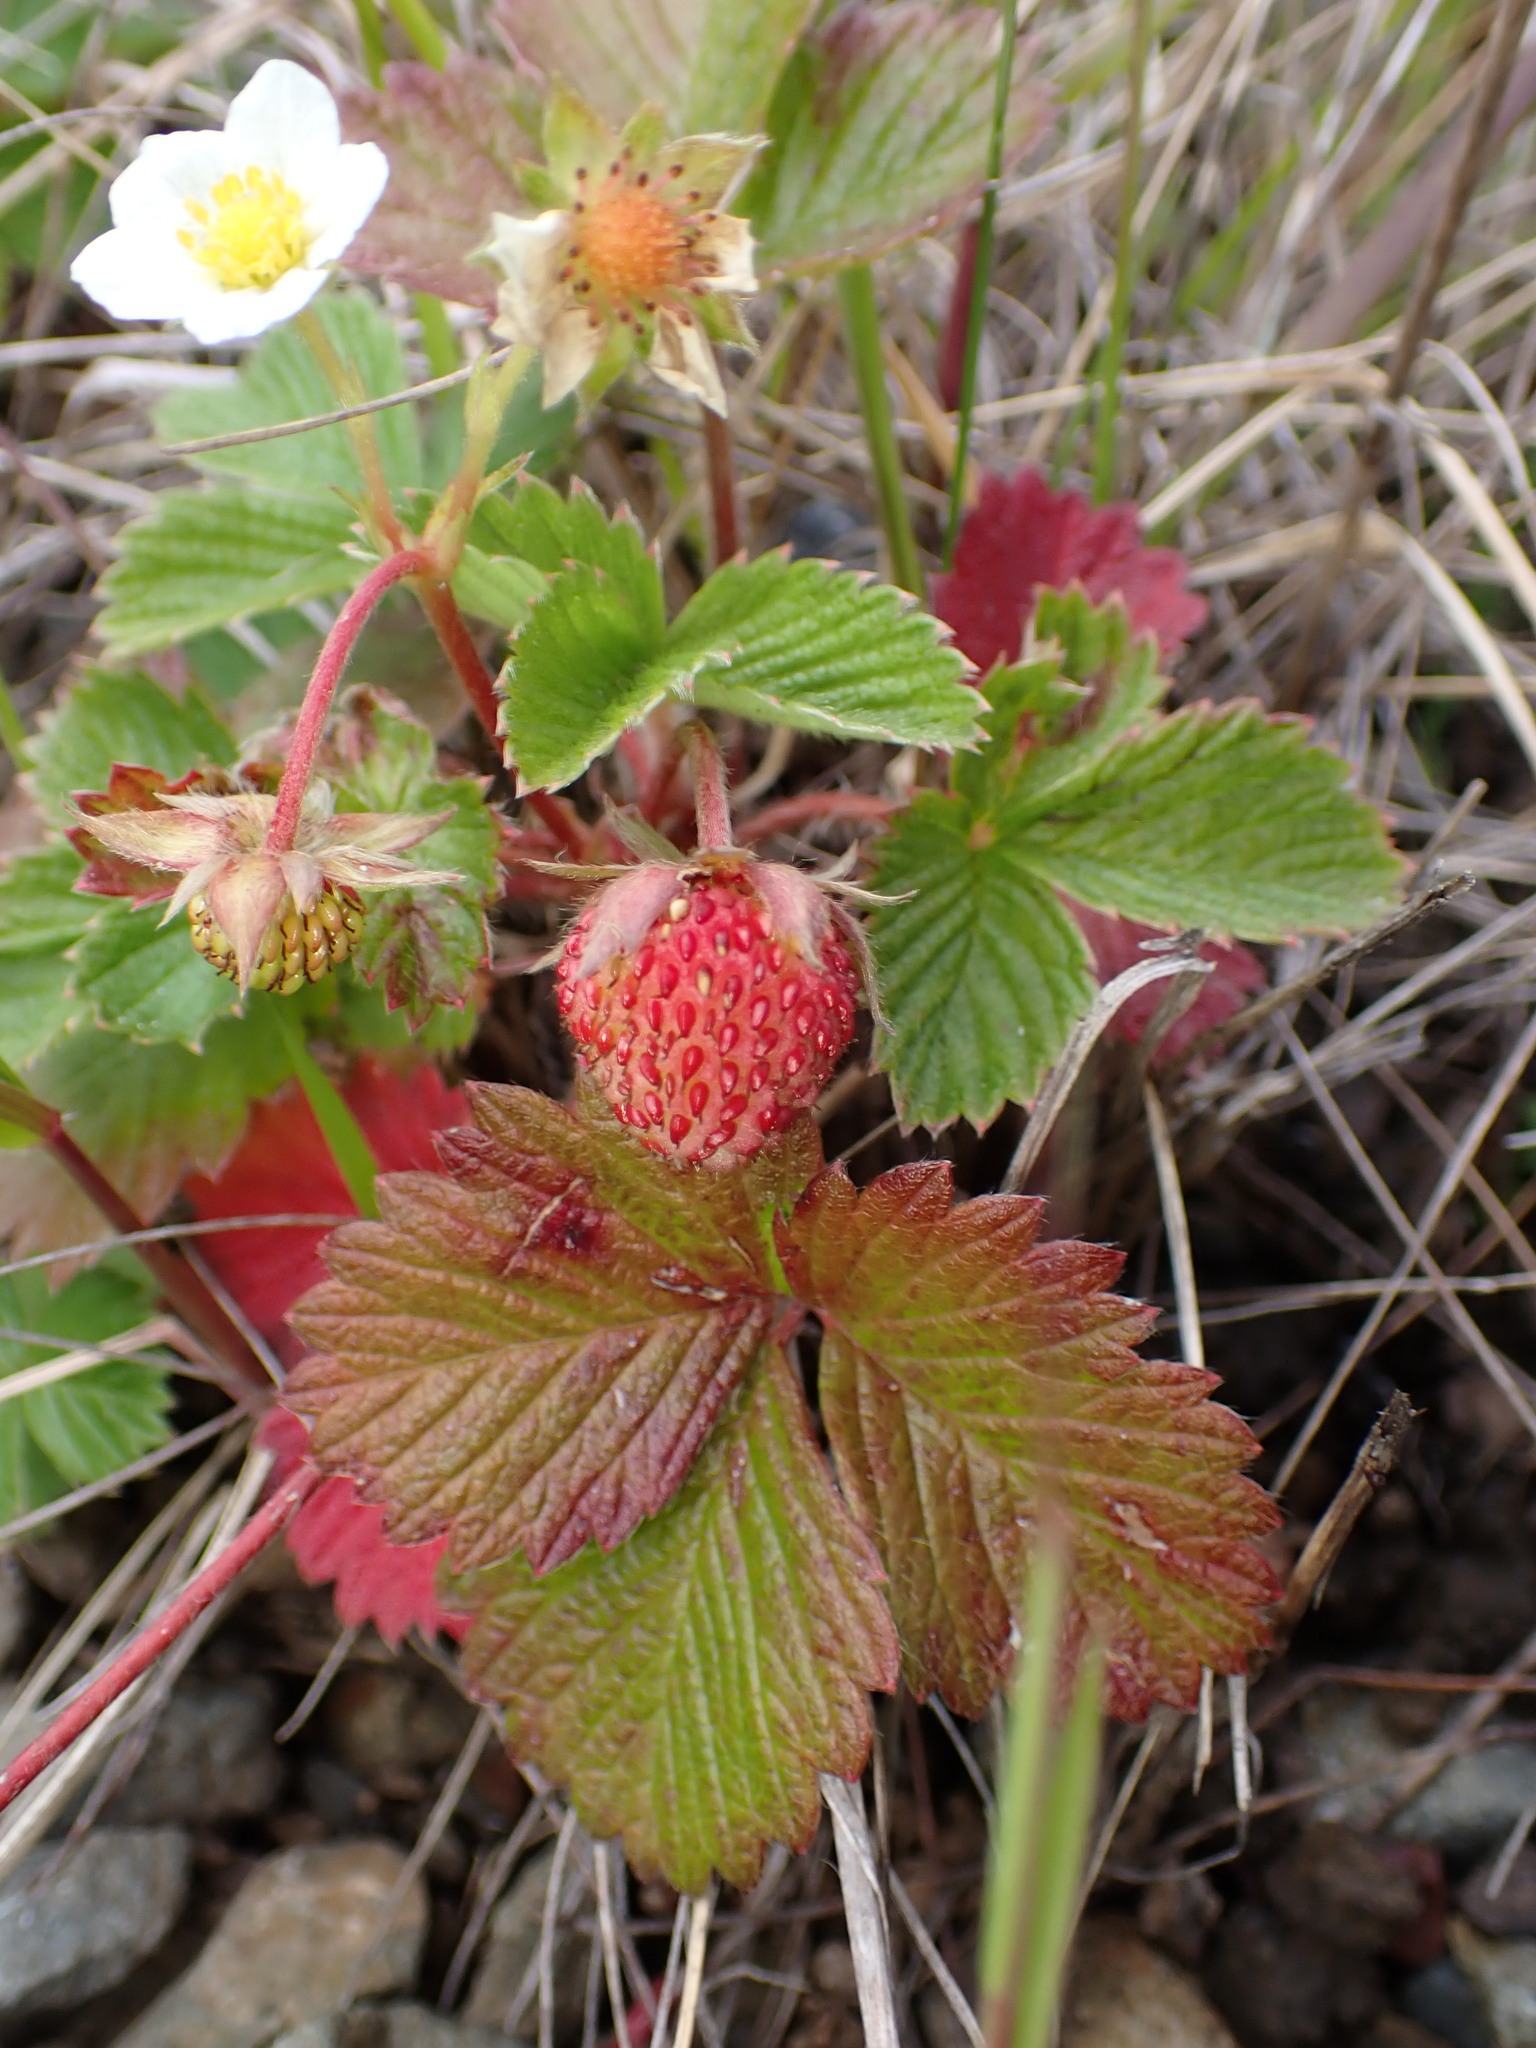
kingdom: Plantae
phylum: Tracheophyta
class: Magnoliopsida
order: Rosales
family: Rosaceae
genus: Fragaria
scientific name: Fragaria vesca
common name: Wild strawberry
